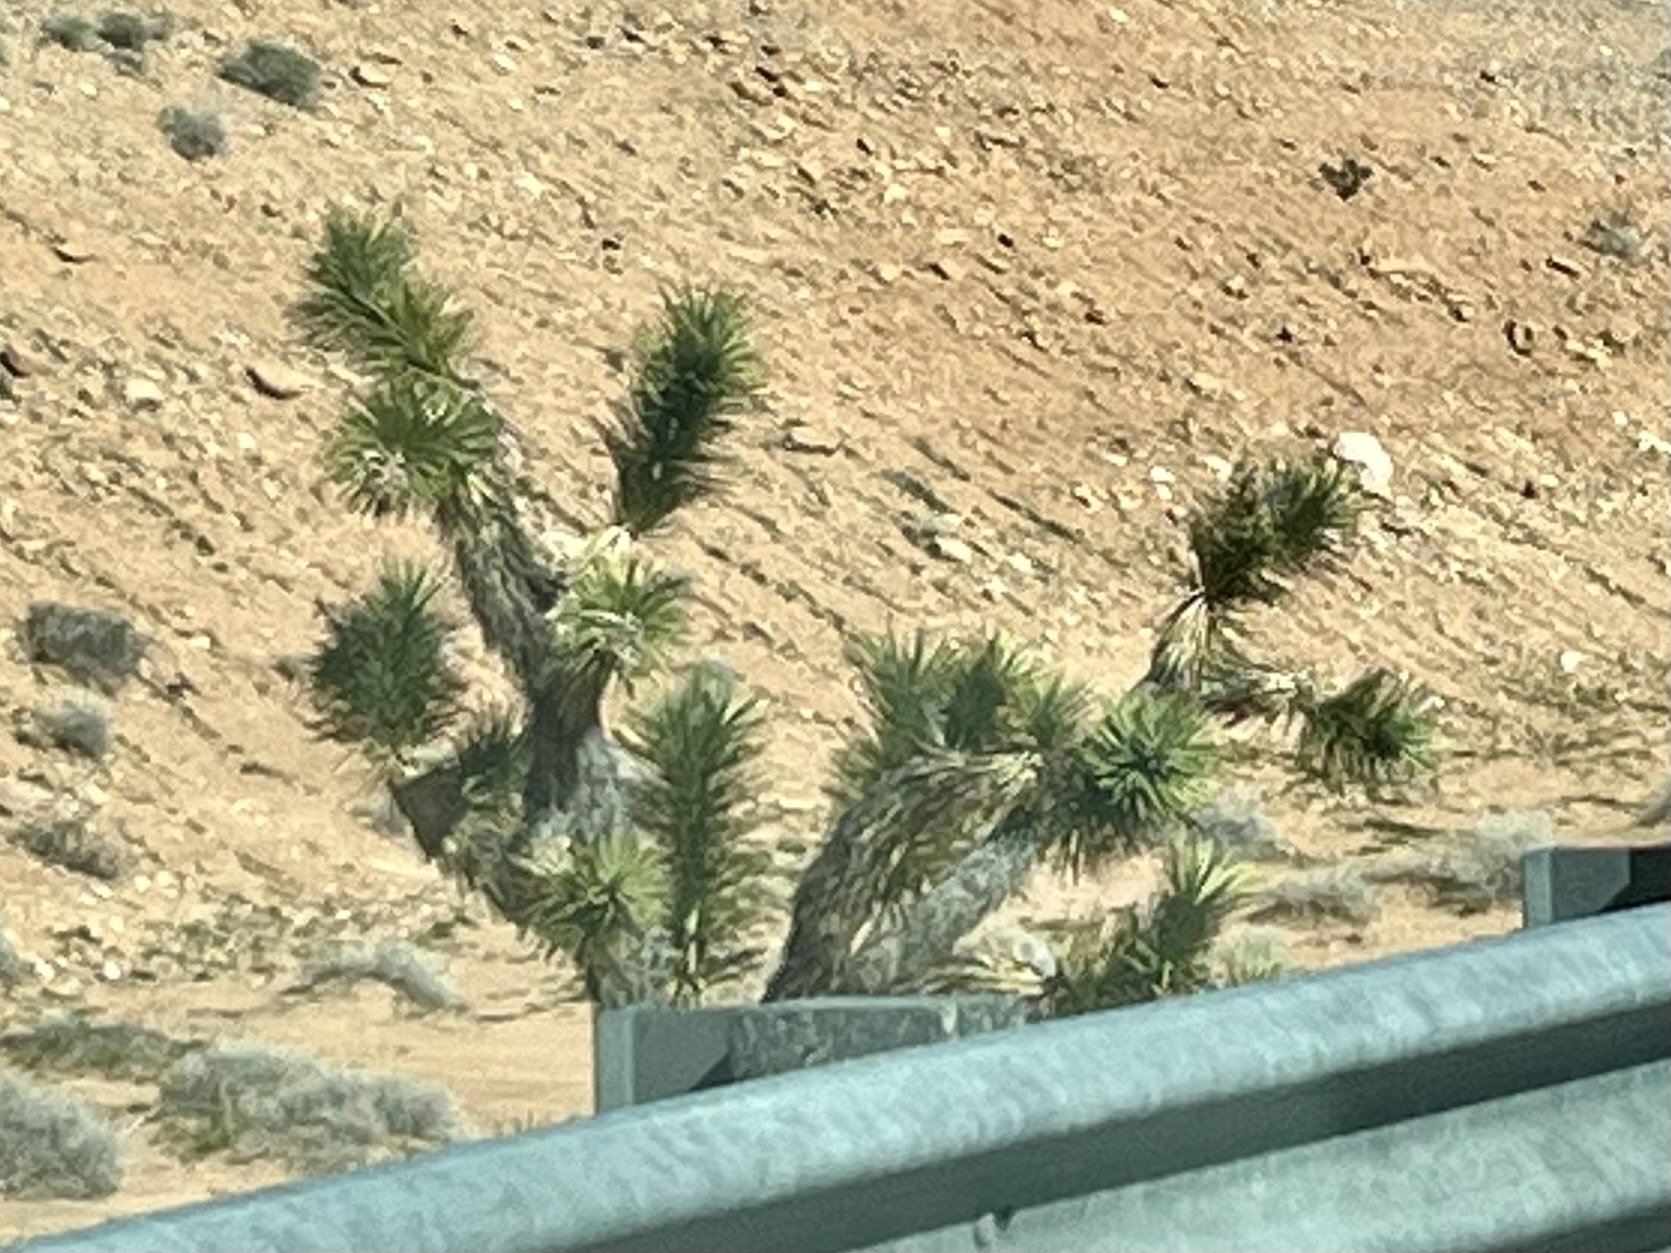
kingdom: Plantae
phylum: Tracheophyta
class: Liliopsida
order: Asparagales
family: Asparagaceae
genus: Yucca
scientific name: Yucca brevifolia
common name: Joshua tree
